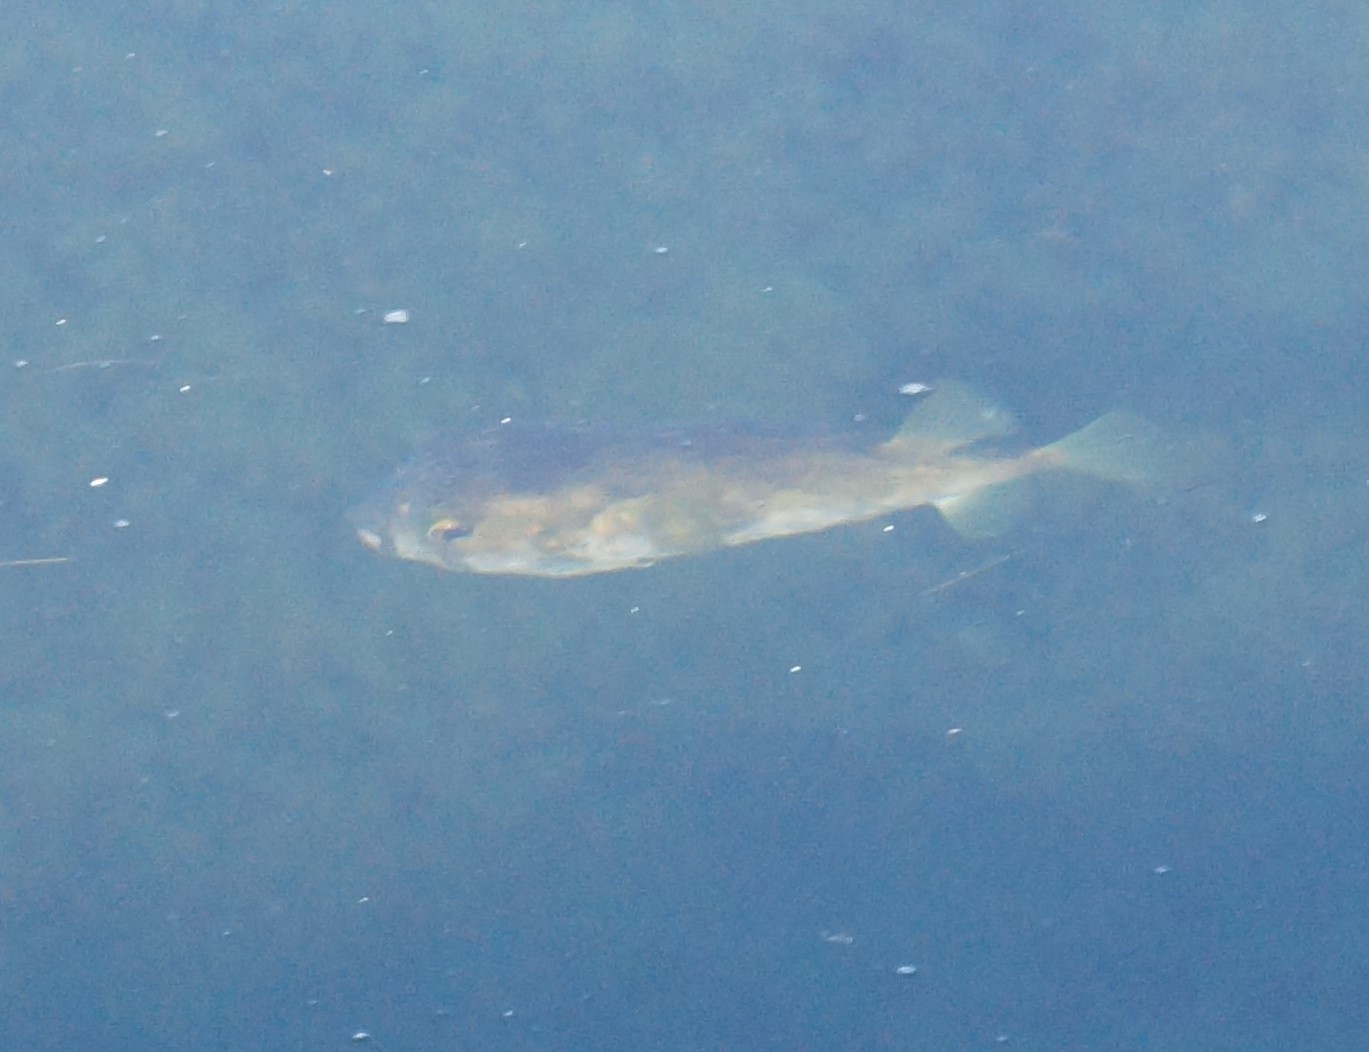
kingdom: Animalia
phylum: Chordata
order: Tetraodontiformes
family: Diodontidae
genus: Diodon
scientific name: Diodon nicthemerus
